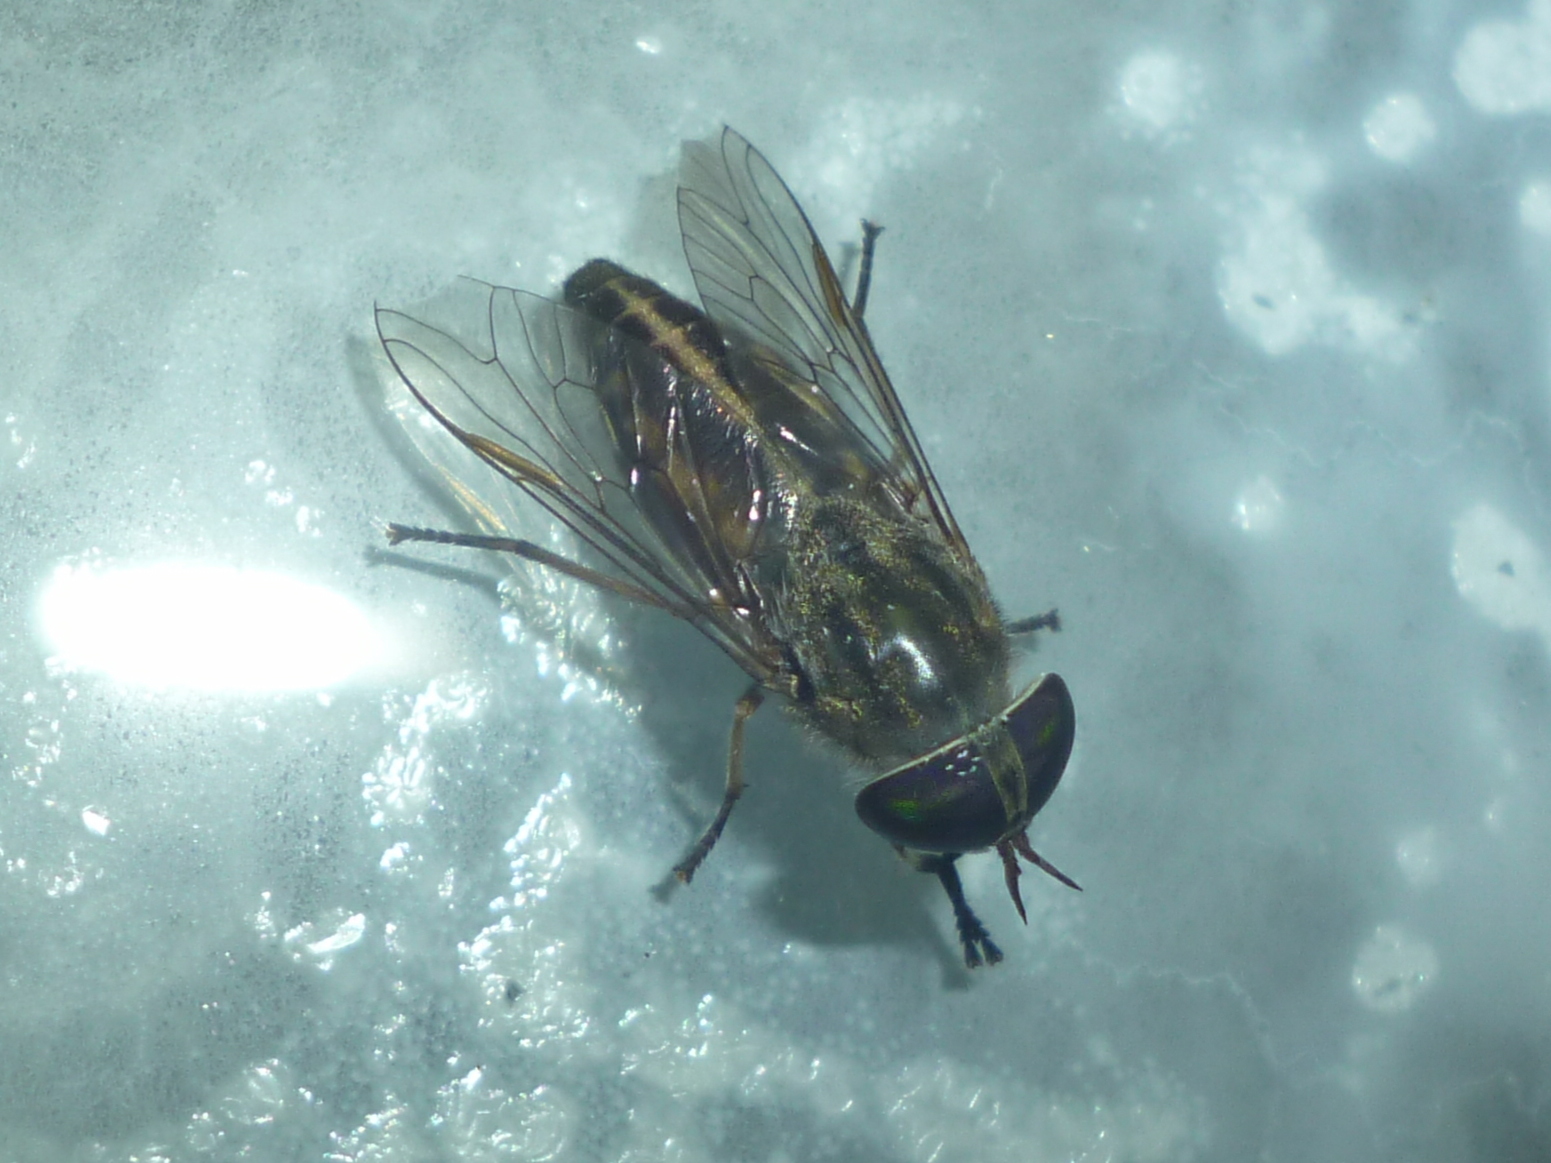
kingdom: Animalia
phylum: Arthropoda
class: Insecta
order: Diptera
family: Tabanidae
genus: Tabanus
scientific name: Tabanus lineola
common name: Striped horse fly
